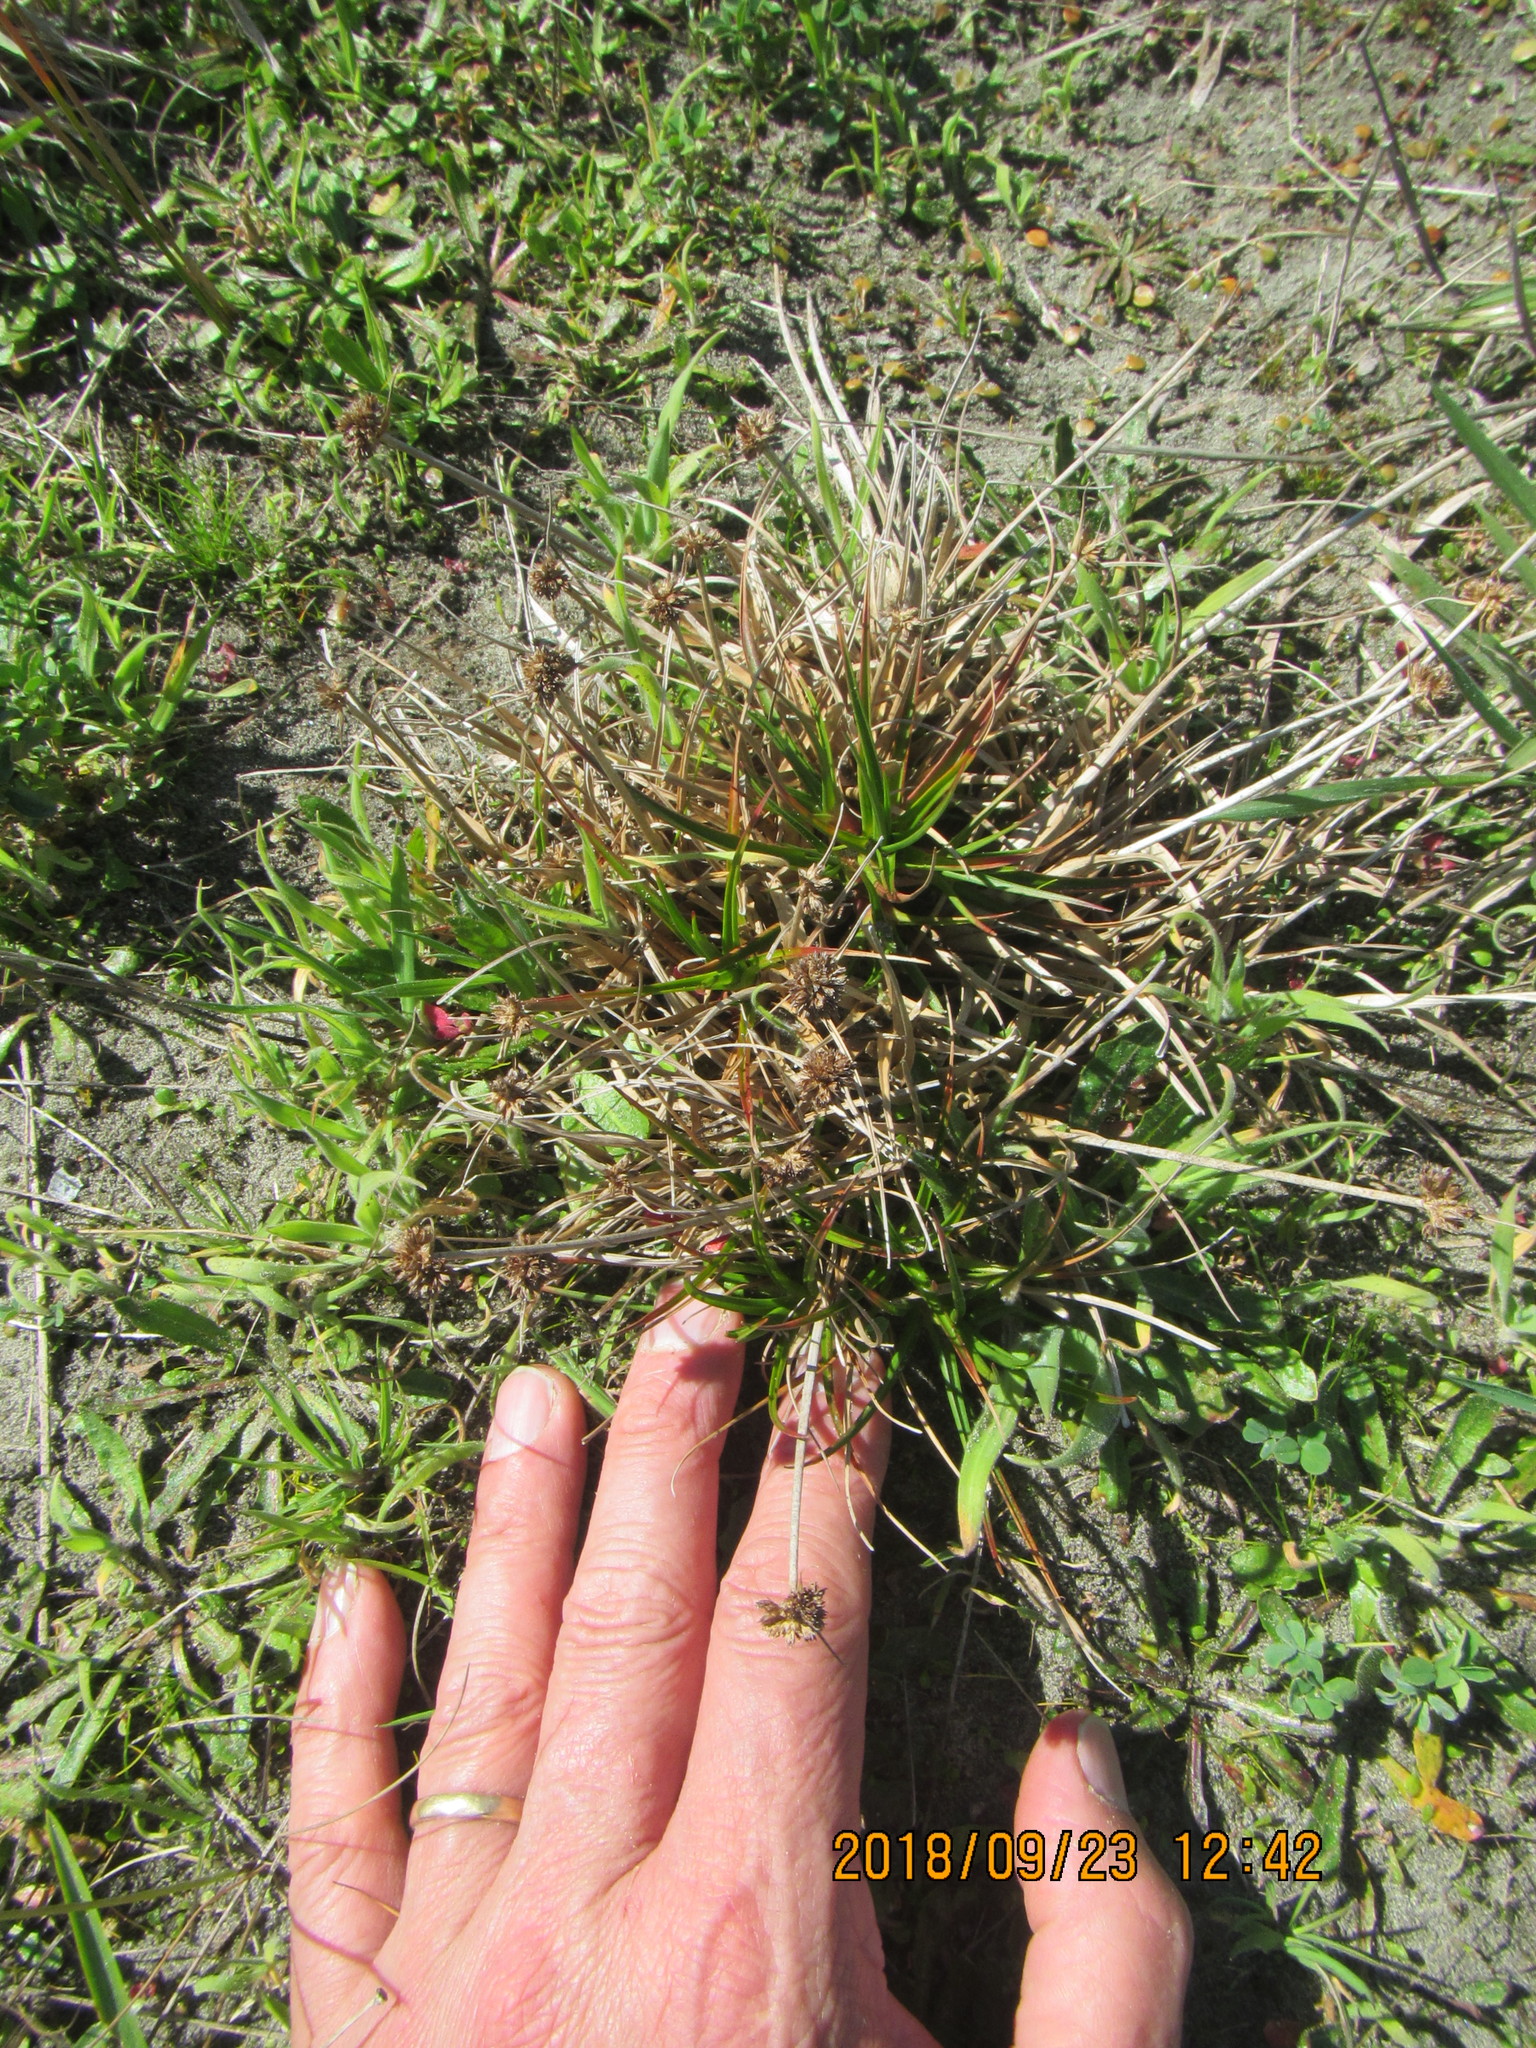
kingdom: Plantae
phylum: Tracheophyta
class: Liliopsida
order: Poales
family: Juncaceae
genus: Juncus
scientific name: Juncus caespiticius
